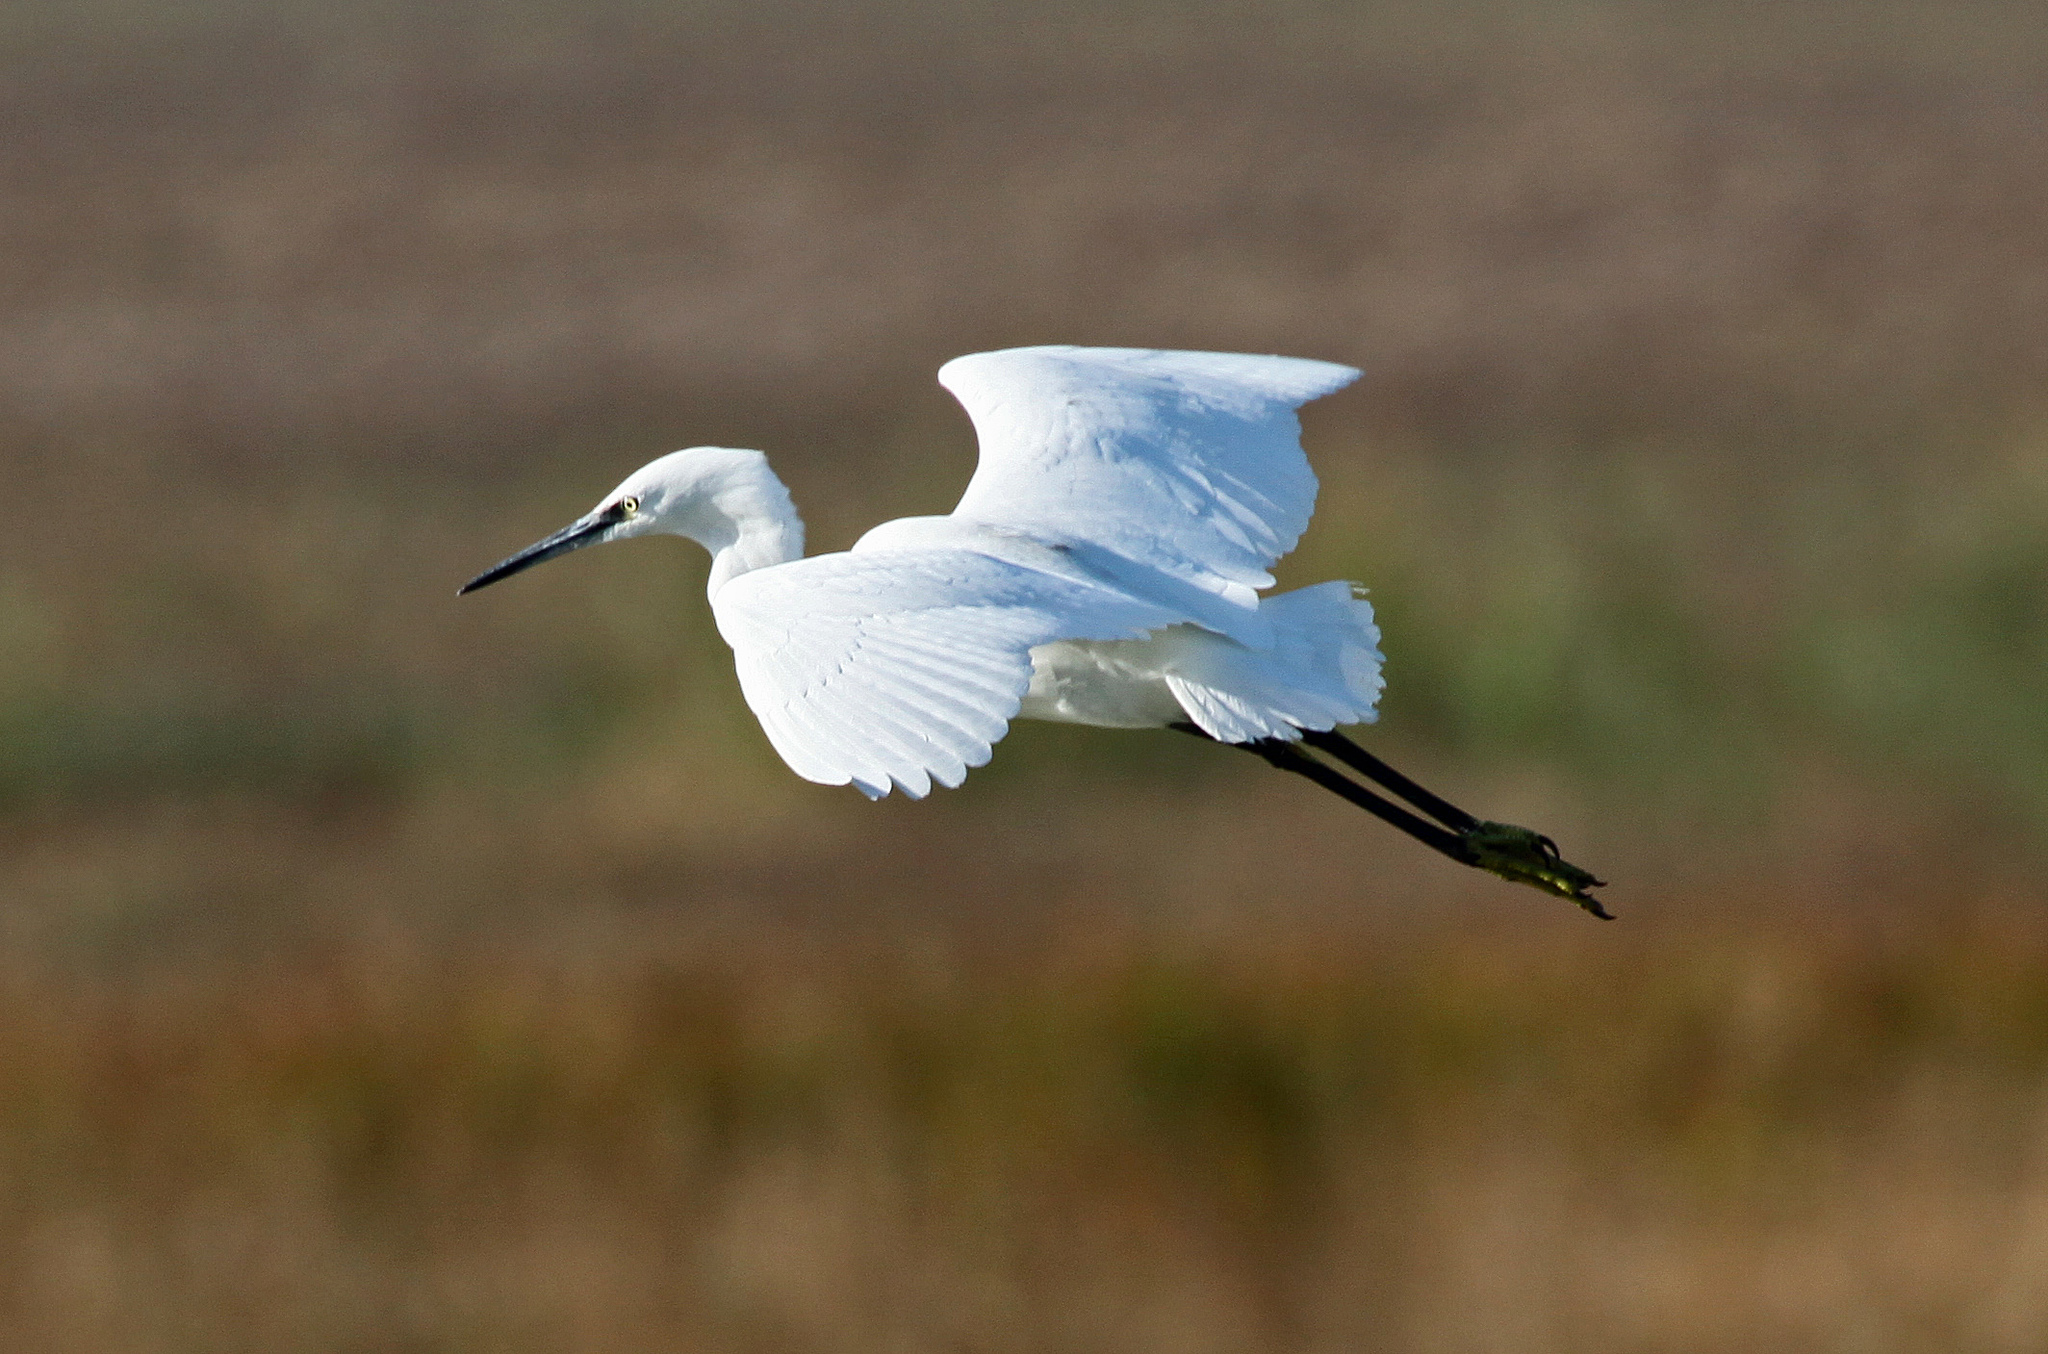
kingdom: Animalia
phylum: Chordata
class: Aves
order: Pelecaniformes
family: Ardeidae
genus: Egretta
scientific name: Egretta garzetta
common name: Little egret
